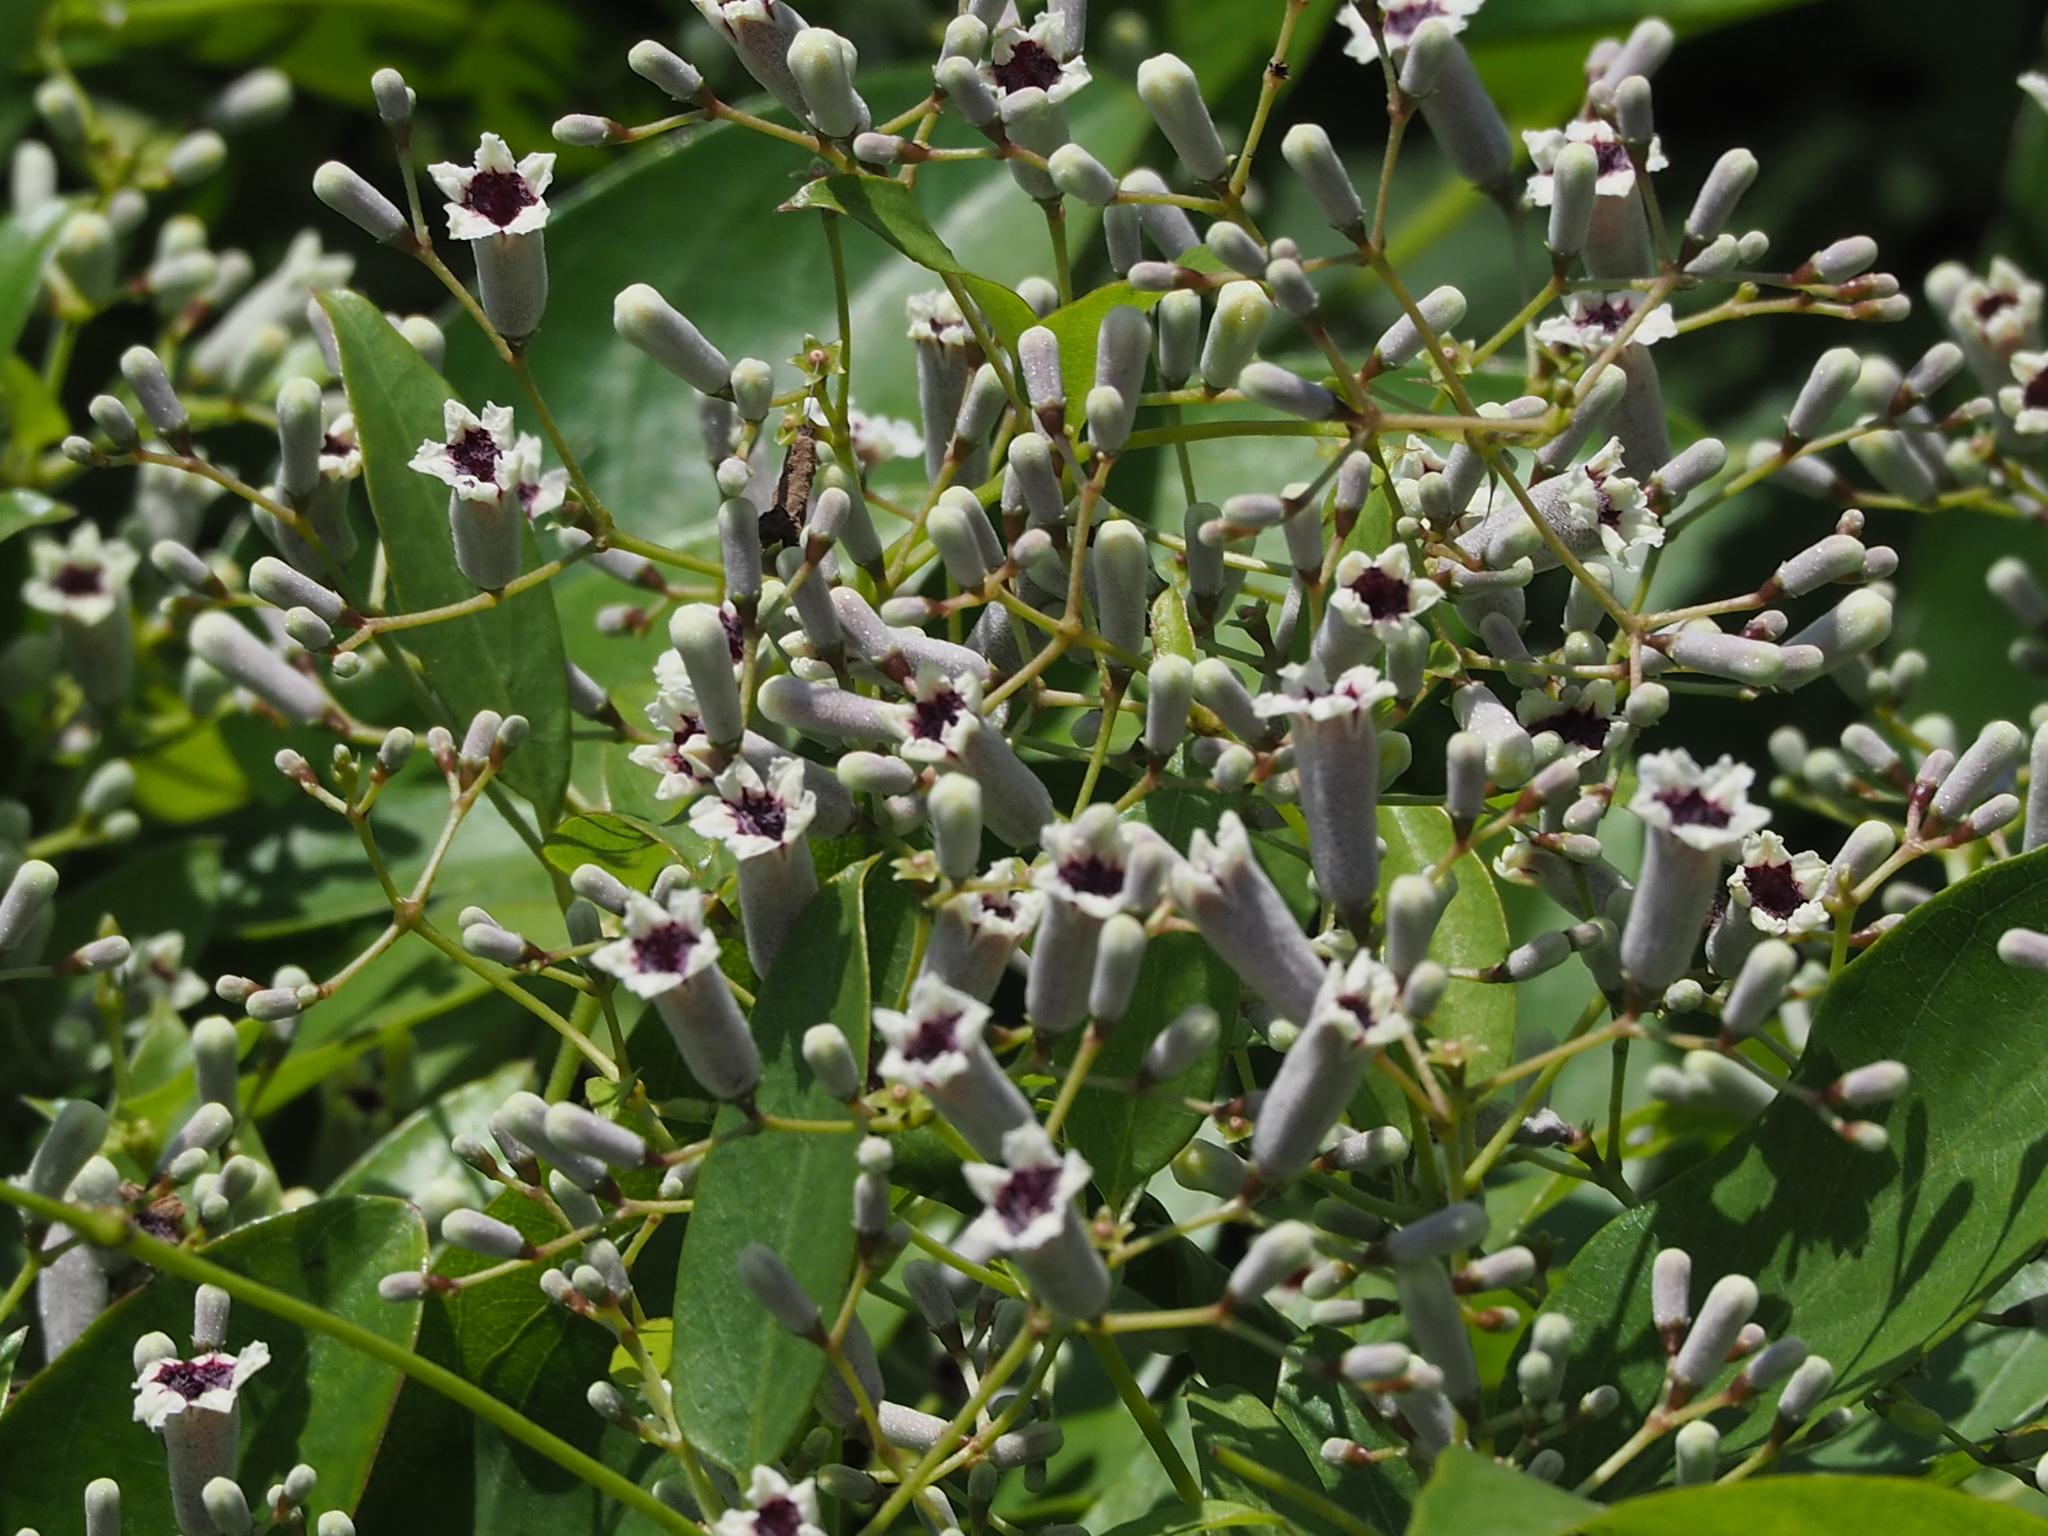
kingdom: Plantae
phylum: Tracheophyta
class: Magnoliopsida
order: Gentianales
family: Rubiaceae
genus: Paederia
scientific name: Paederia foetida
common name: Stinkvine
